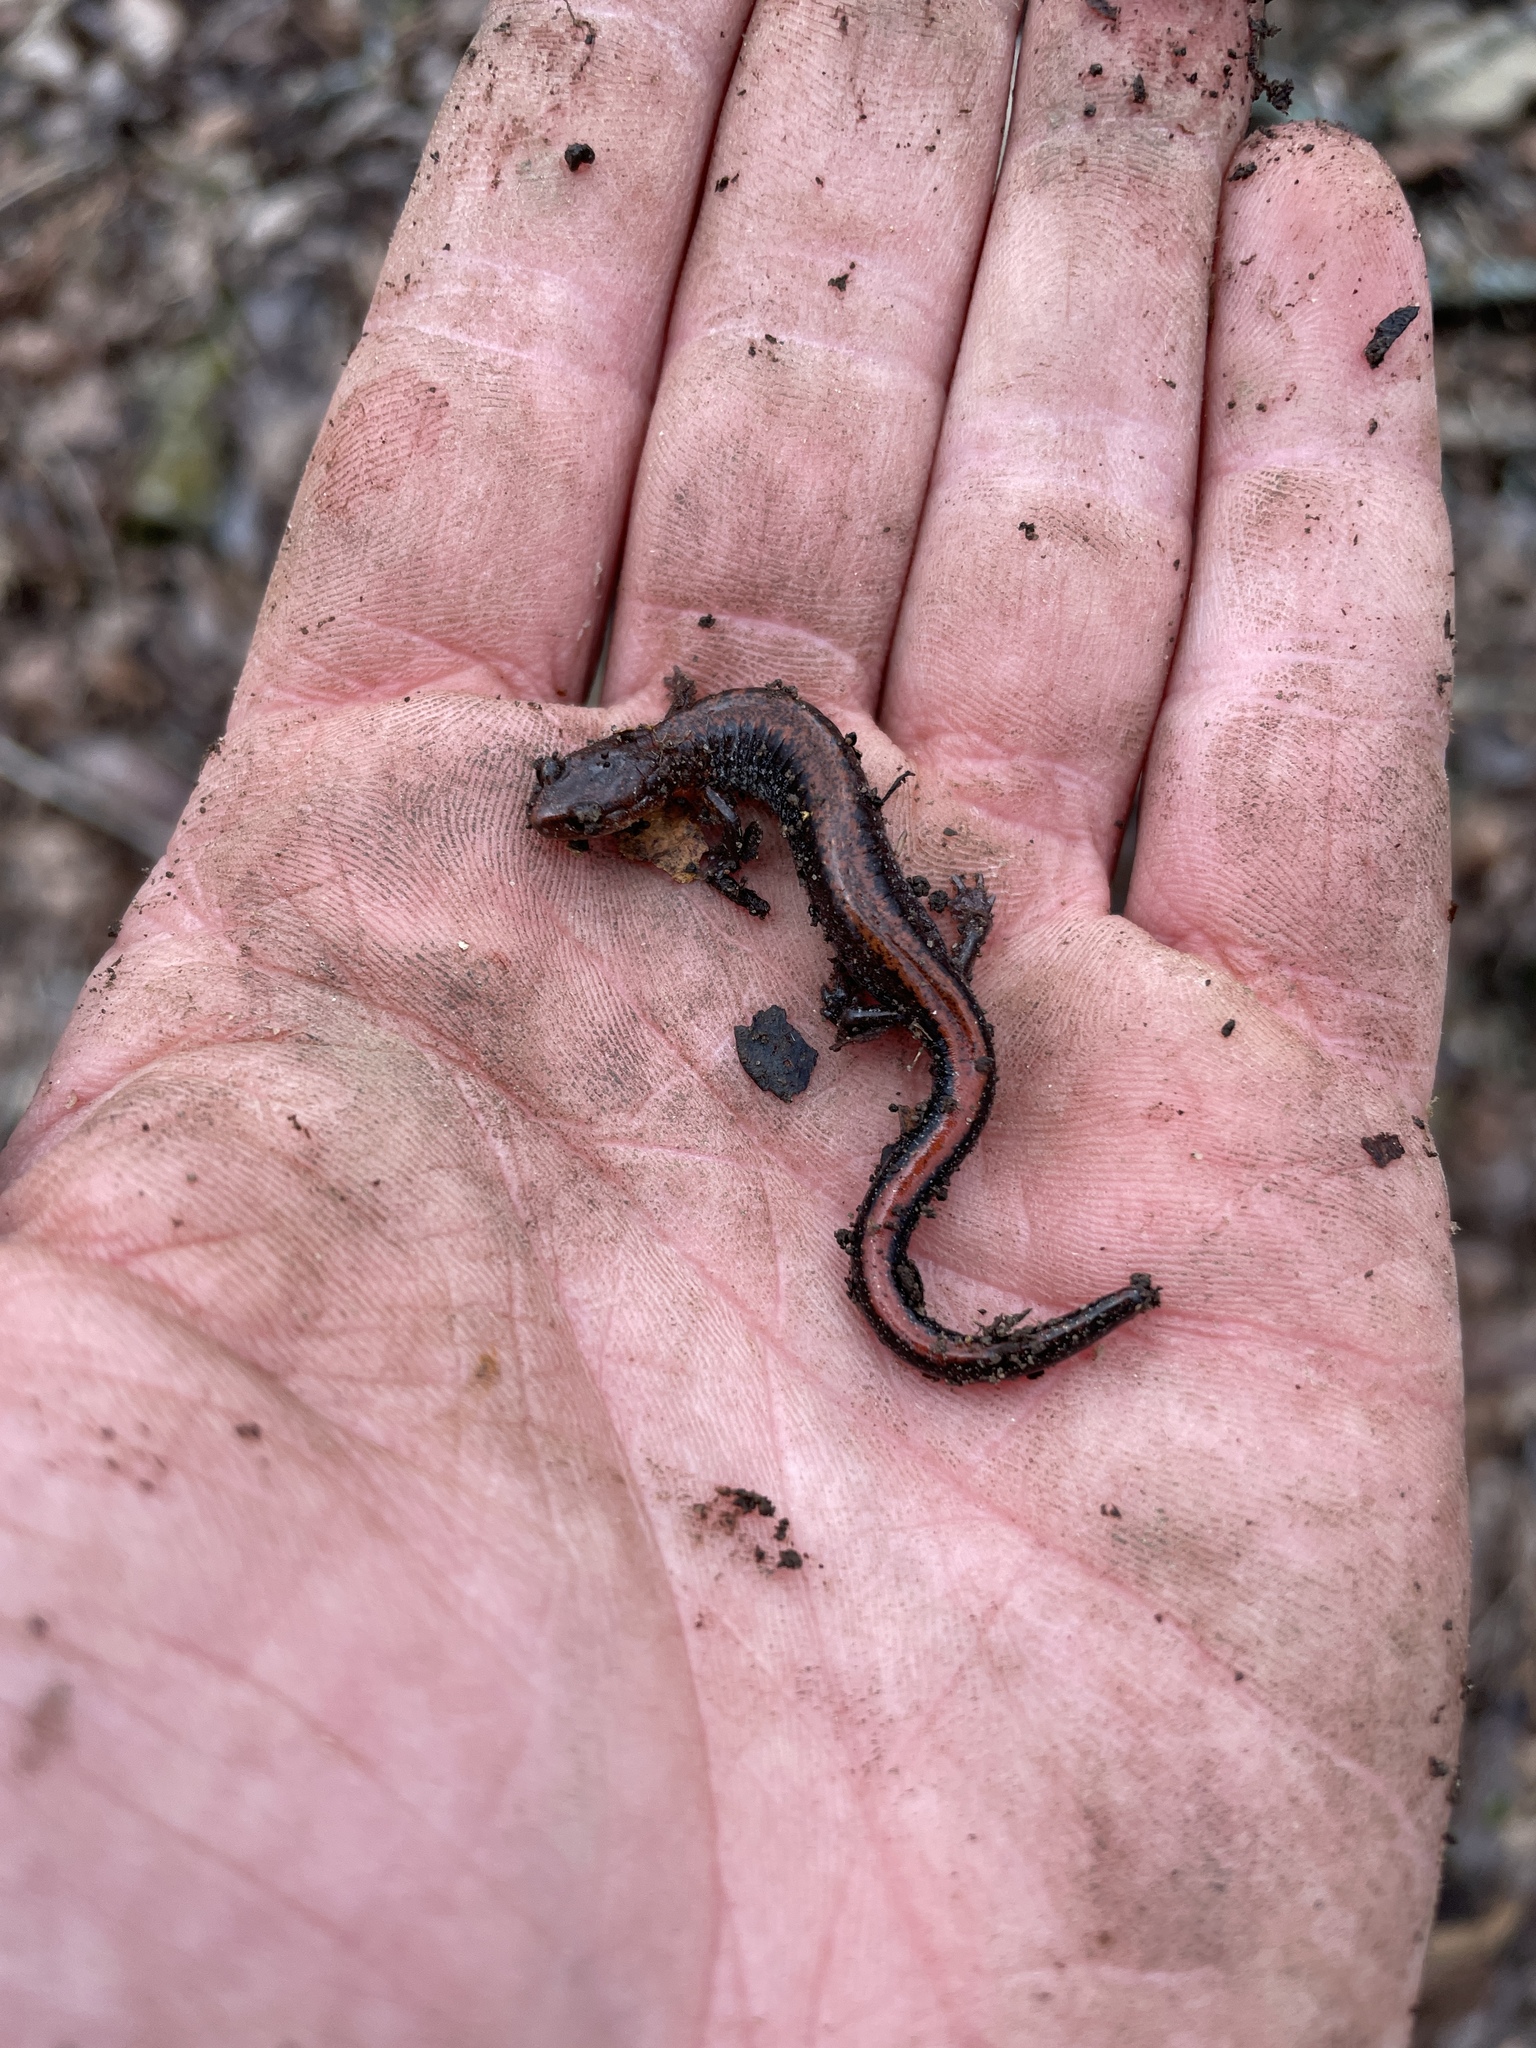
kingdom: Animalia
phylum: Chordata
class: Amphibia
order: Caudata
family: Plethodontidae
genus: Plethodon
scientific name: Plethodon serratus
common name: Southern red-backed salamander
